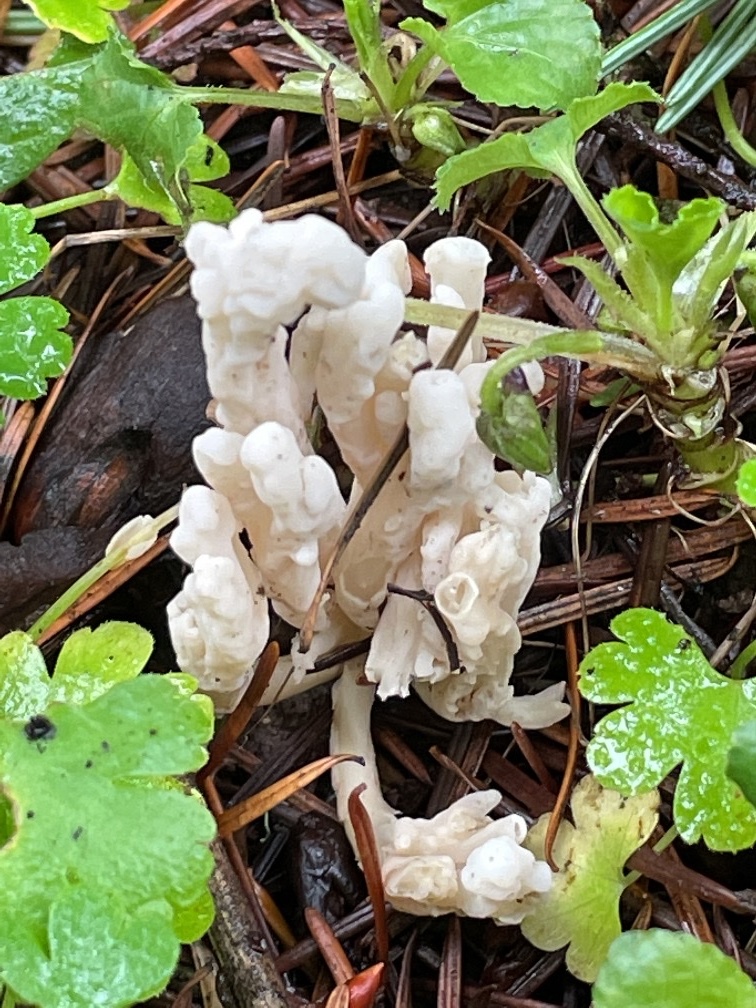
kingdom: Fungi
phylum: Basidiomycota
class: Agaricomycetes
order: Cantharellales
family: Hydnaceae
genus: Clavulina
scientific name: Clavulina rugosa
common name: Wrinkled club
